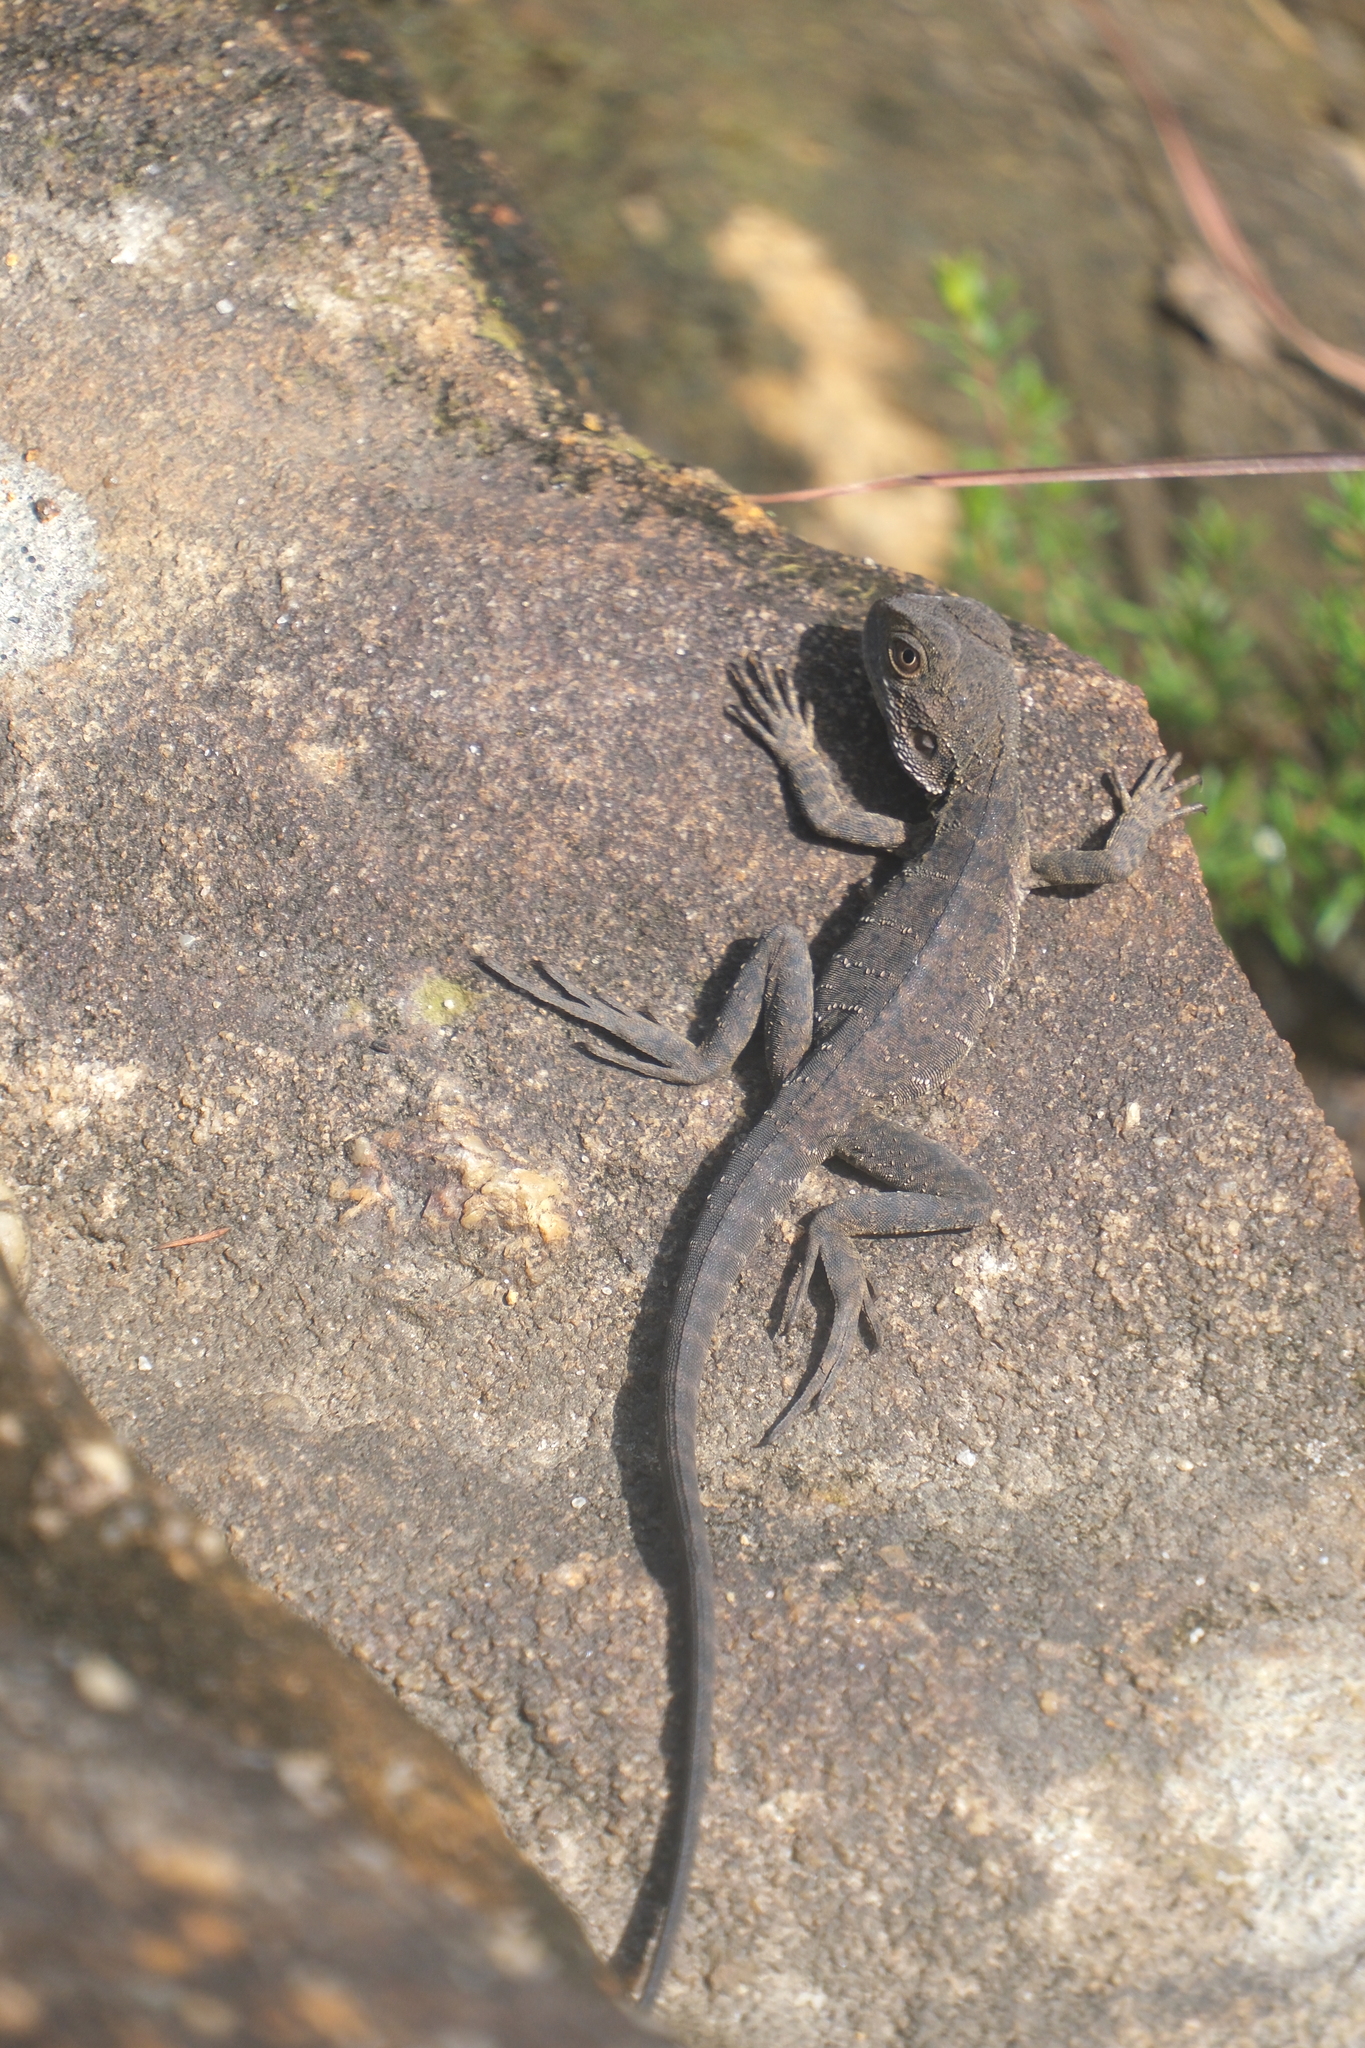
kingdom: Animalia
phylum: Chordata
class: Squamata
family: Agamidae
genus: Intellagama
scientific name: Intellagama lesueurii
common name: Eastern water dragon
